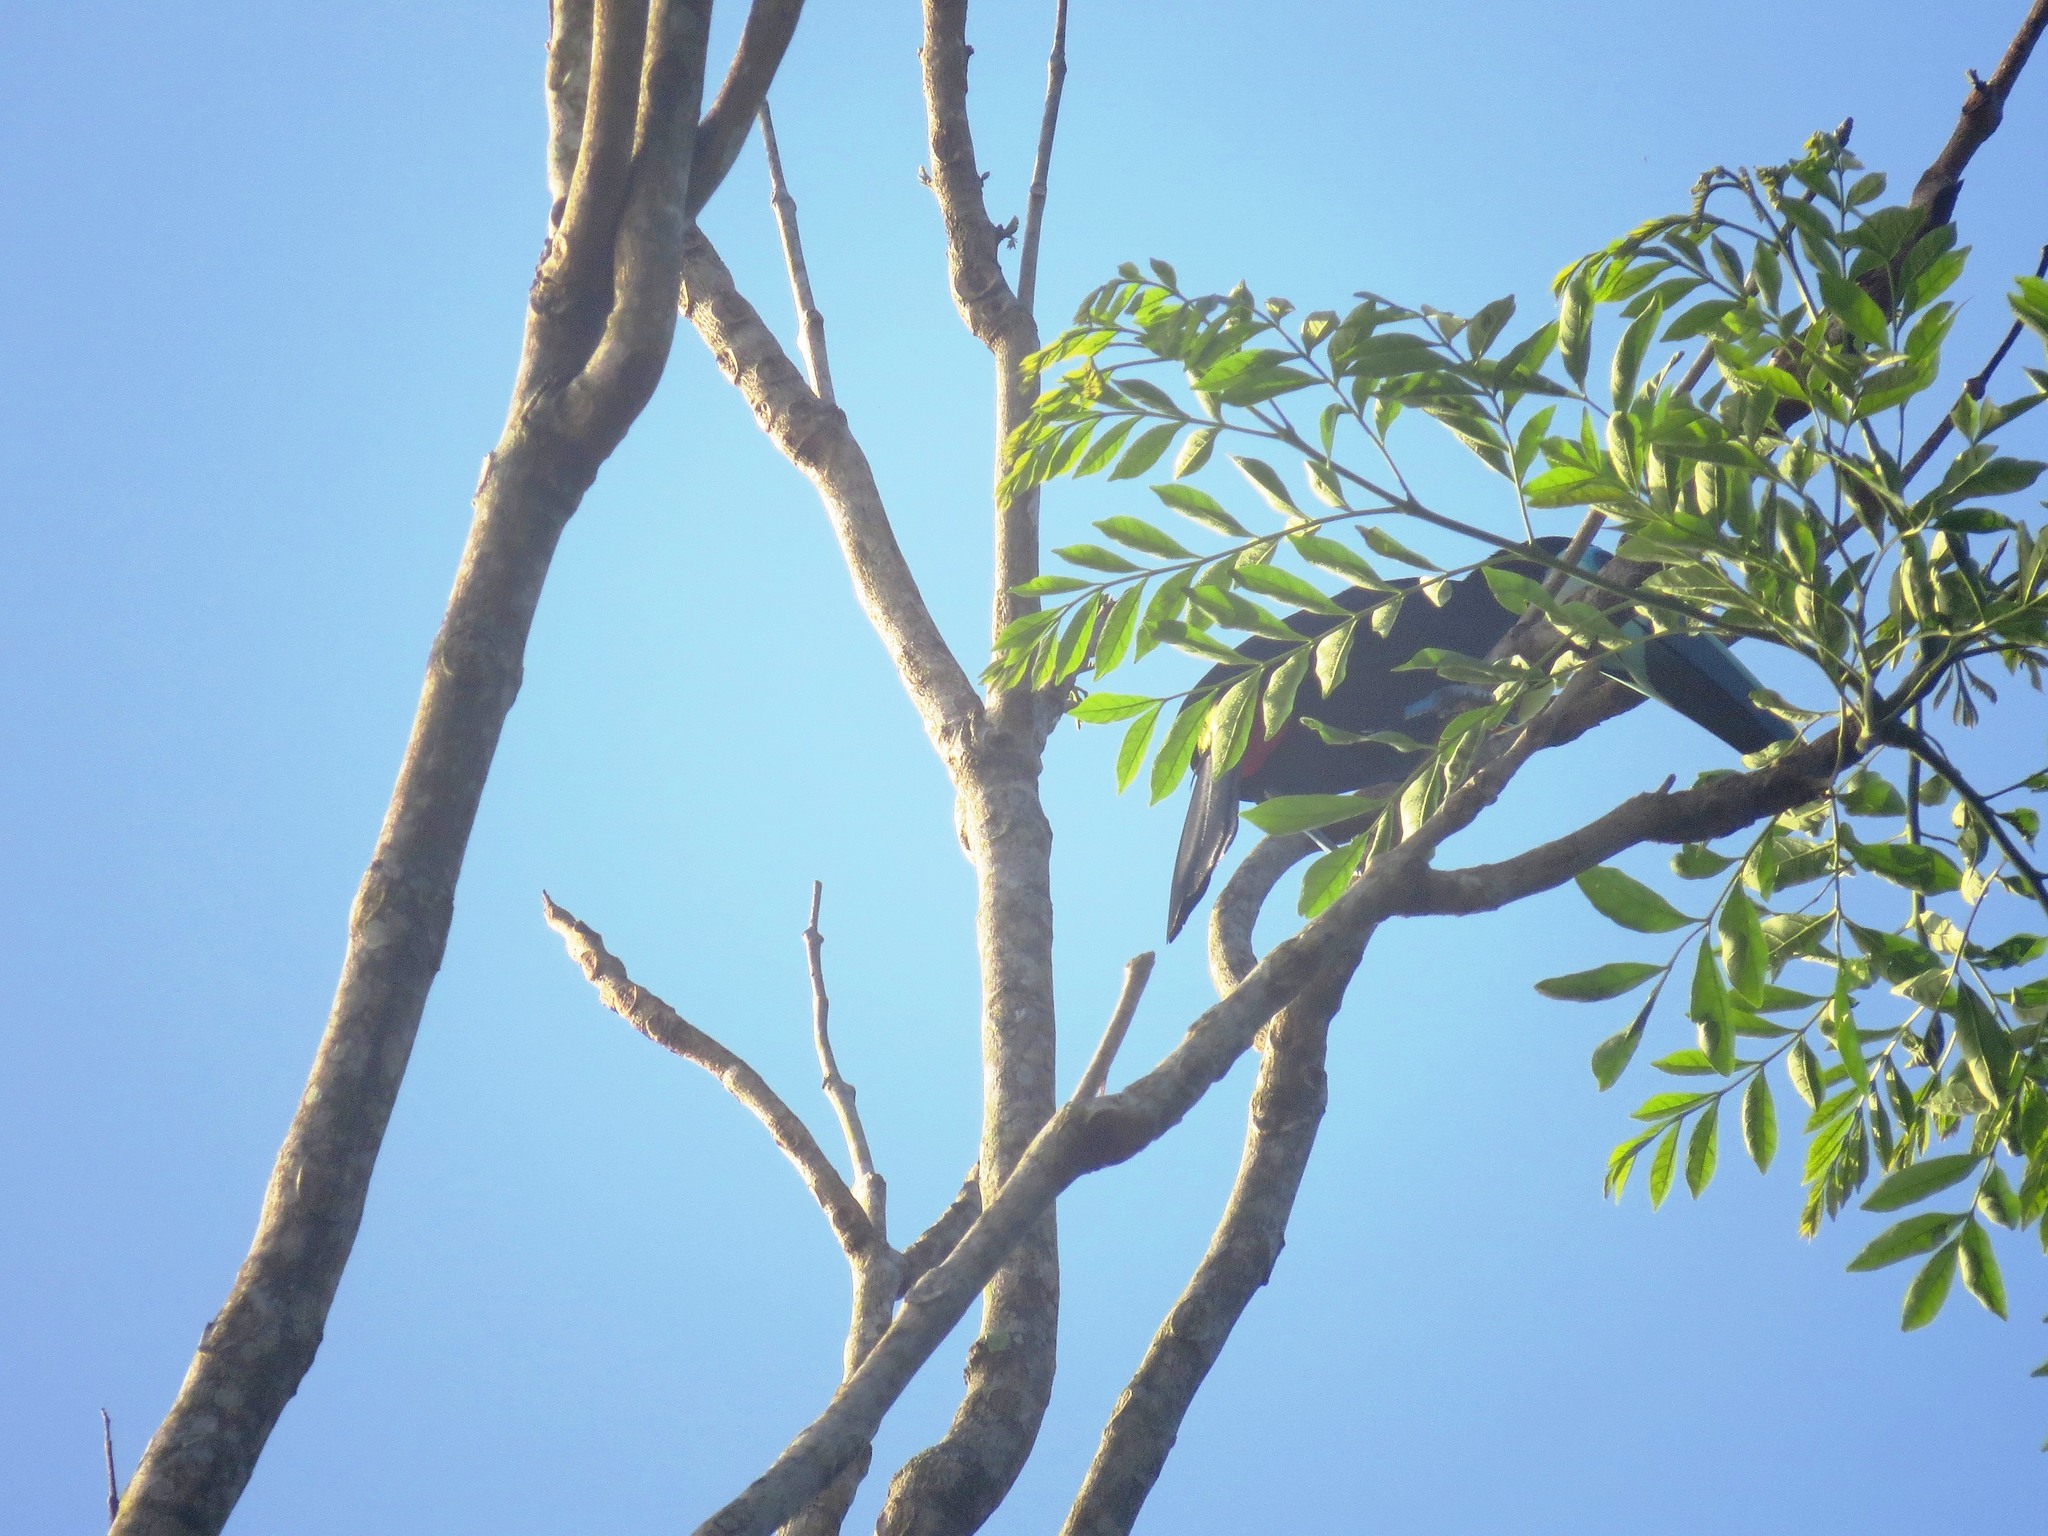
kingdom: Animalia
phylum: Chordata
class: Aves
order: Piciformes
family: Ramphastidae
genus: Ramphastos
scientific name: Ramphastos citreolaemus
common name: Citron-throated toucan
